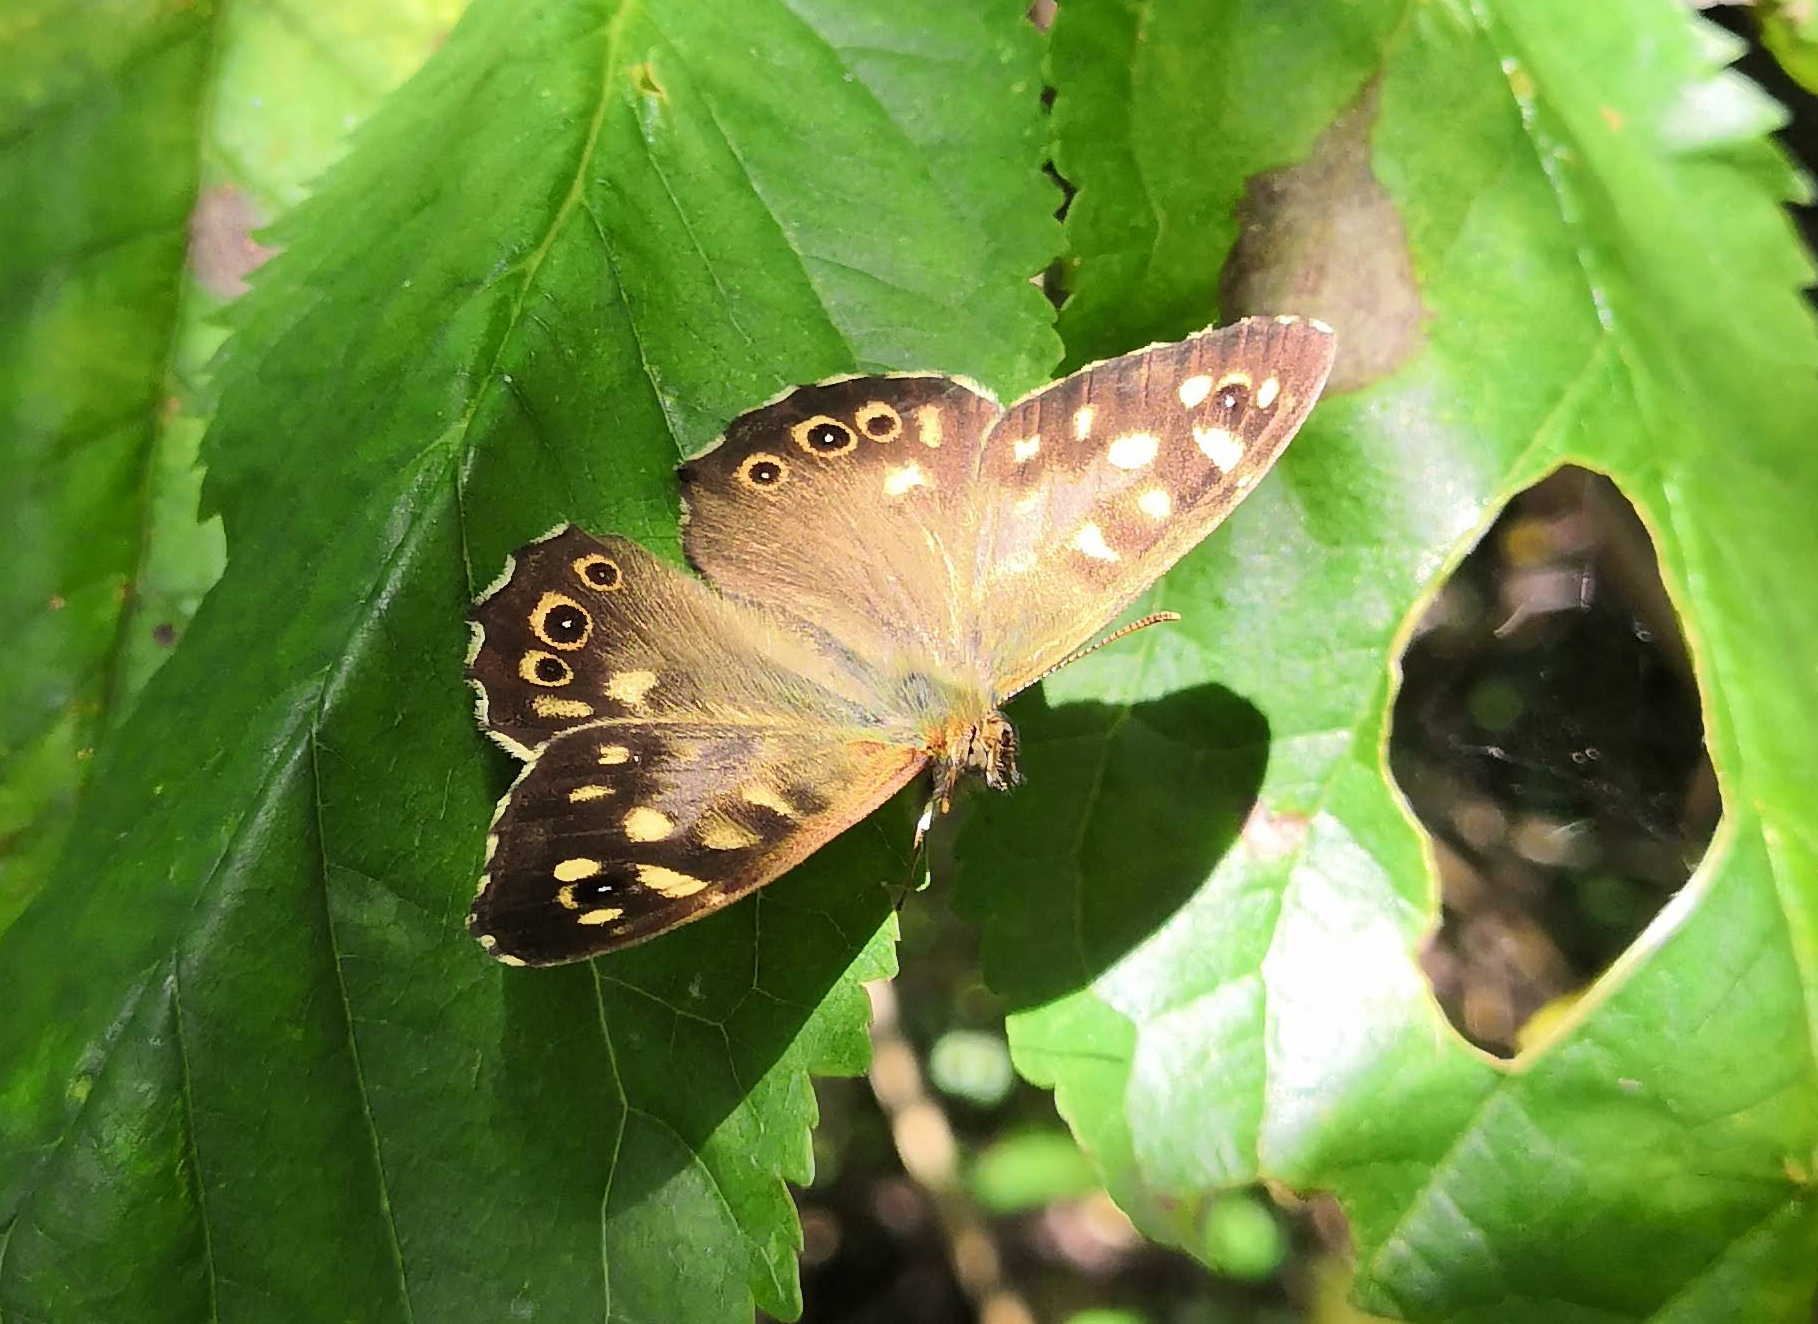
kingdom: Animalia
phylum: Arthropoda
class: Insecta
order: Lepidoptera
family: Nymphalidae
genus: Pararge
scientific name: Pararge aegeria
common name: Speckled wood
